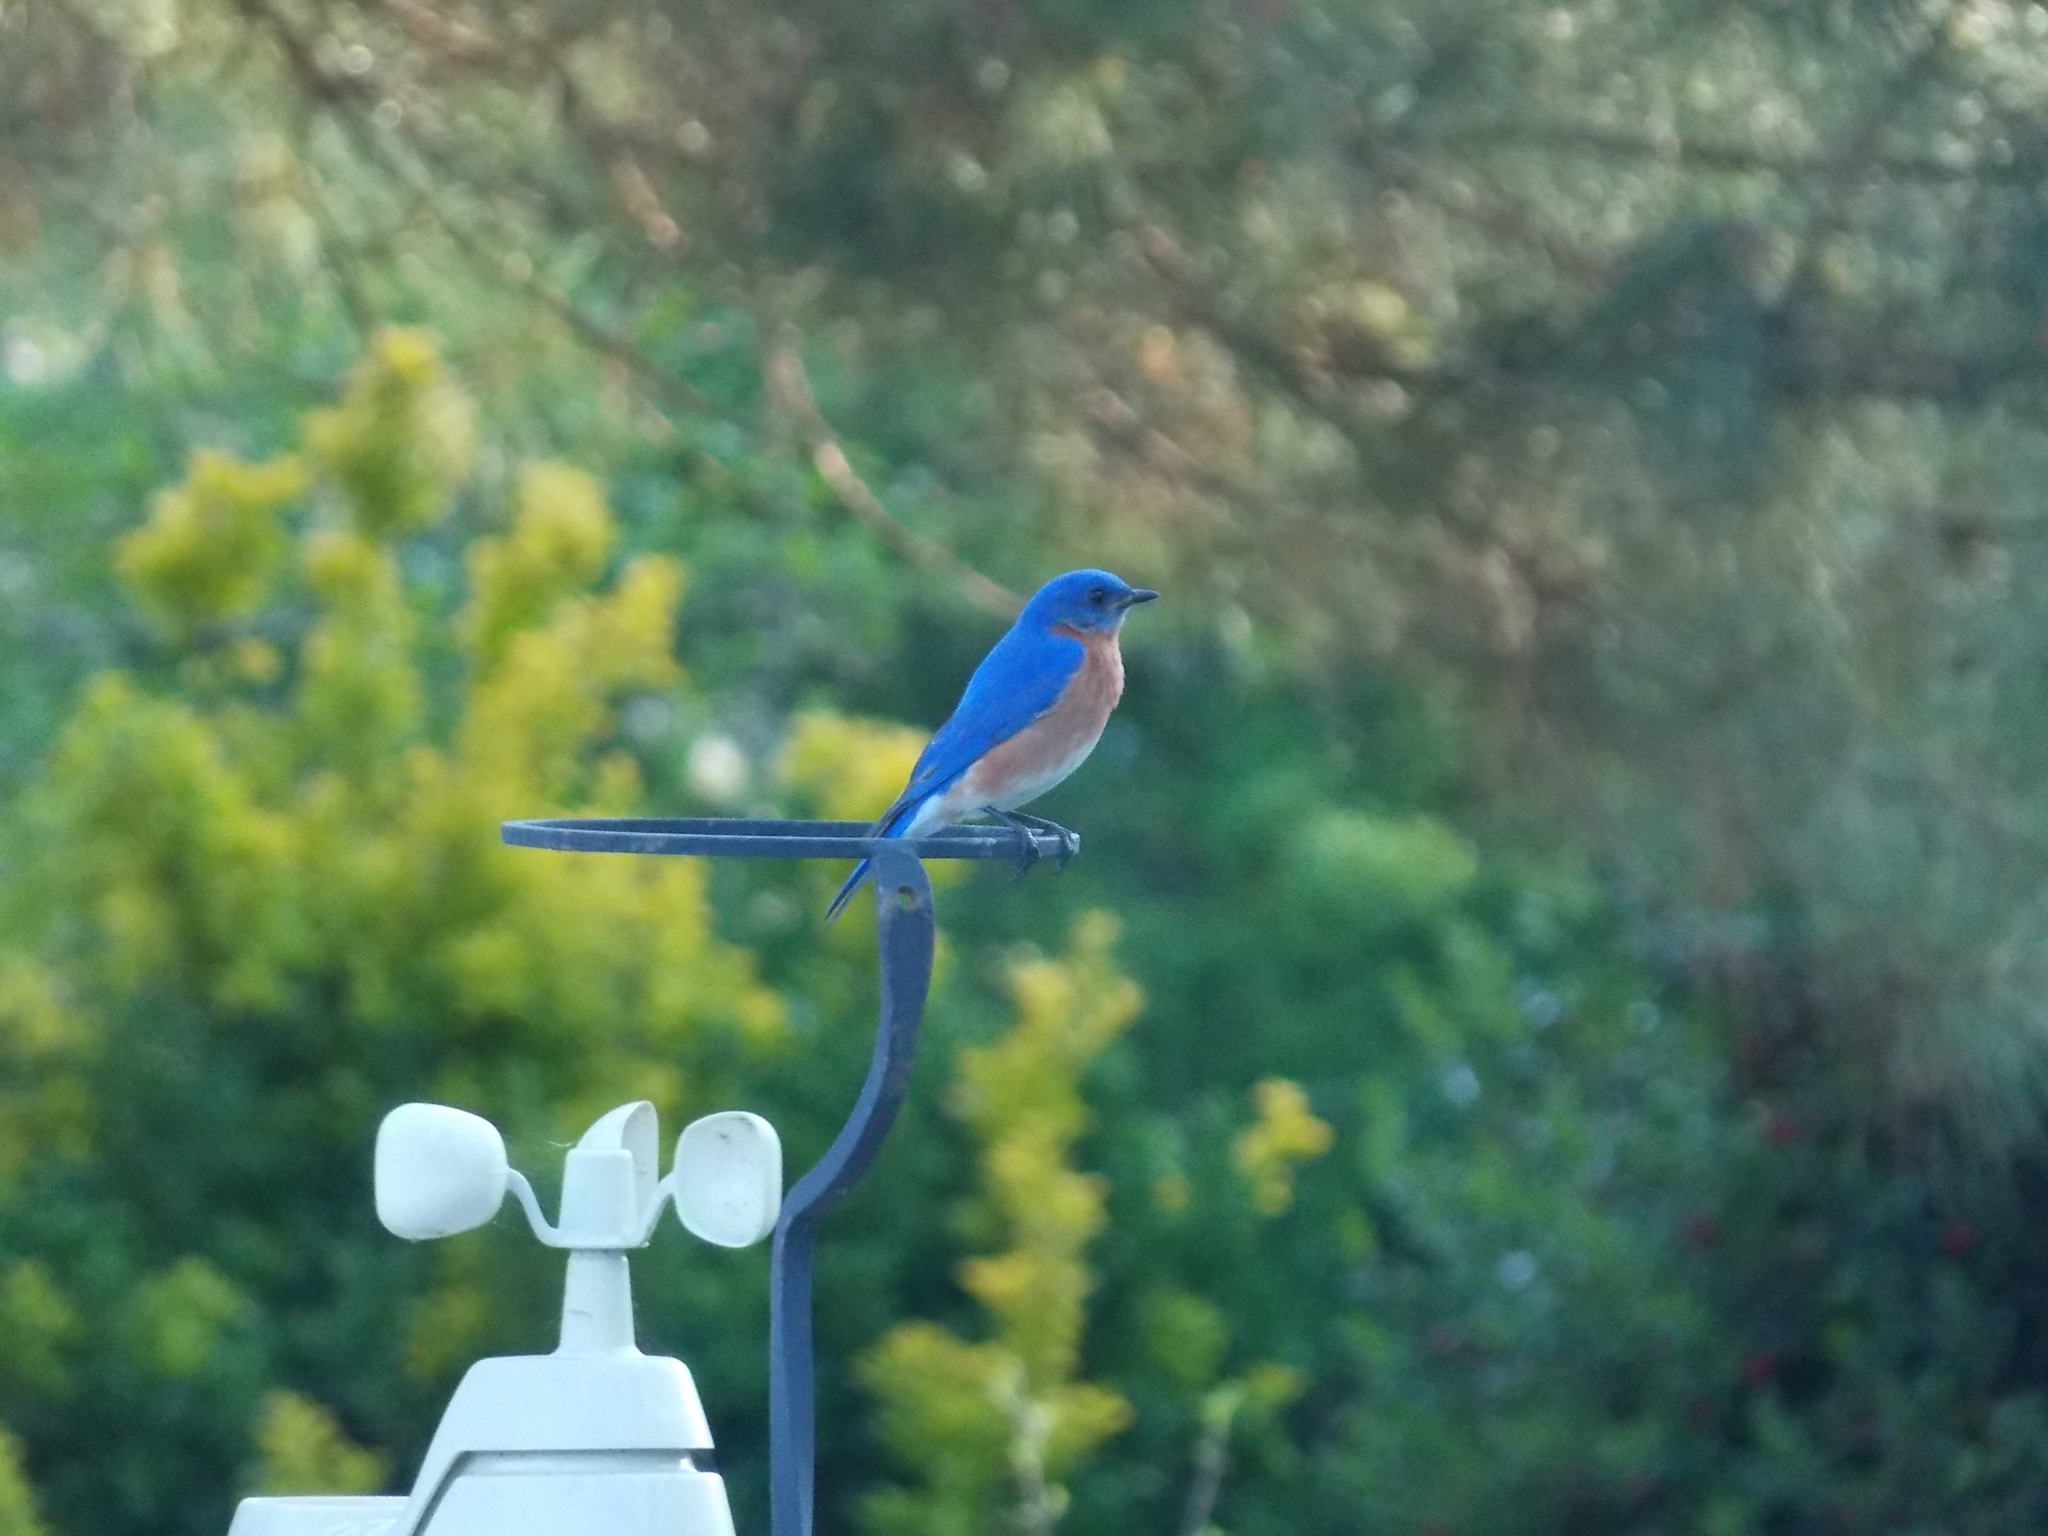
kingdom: Animalia
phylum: Chordata
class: Aves
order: Passeriformes
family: Turdidae
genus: Sialia
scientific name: Sialia sialis
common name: Eastern bluebird
